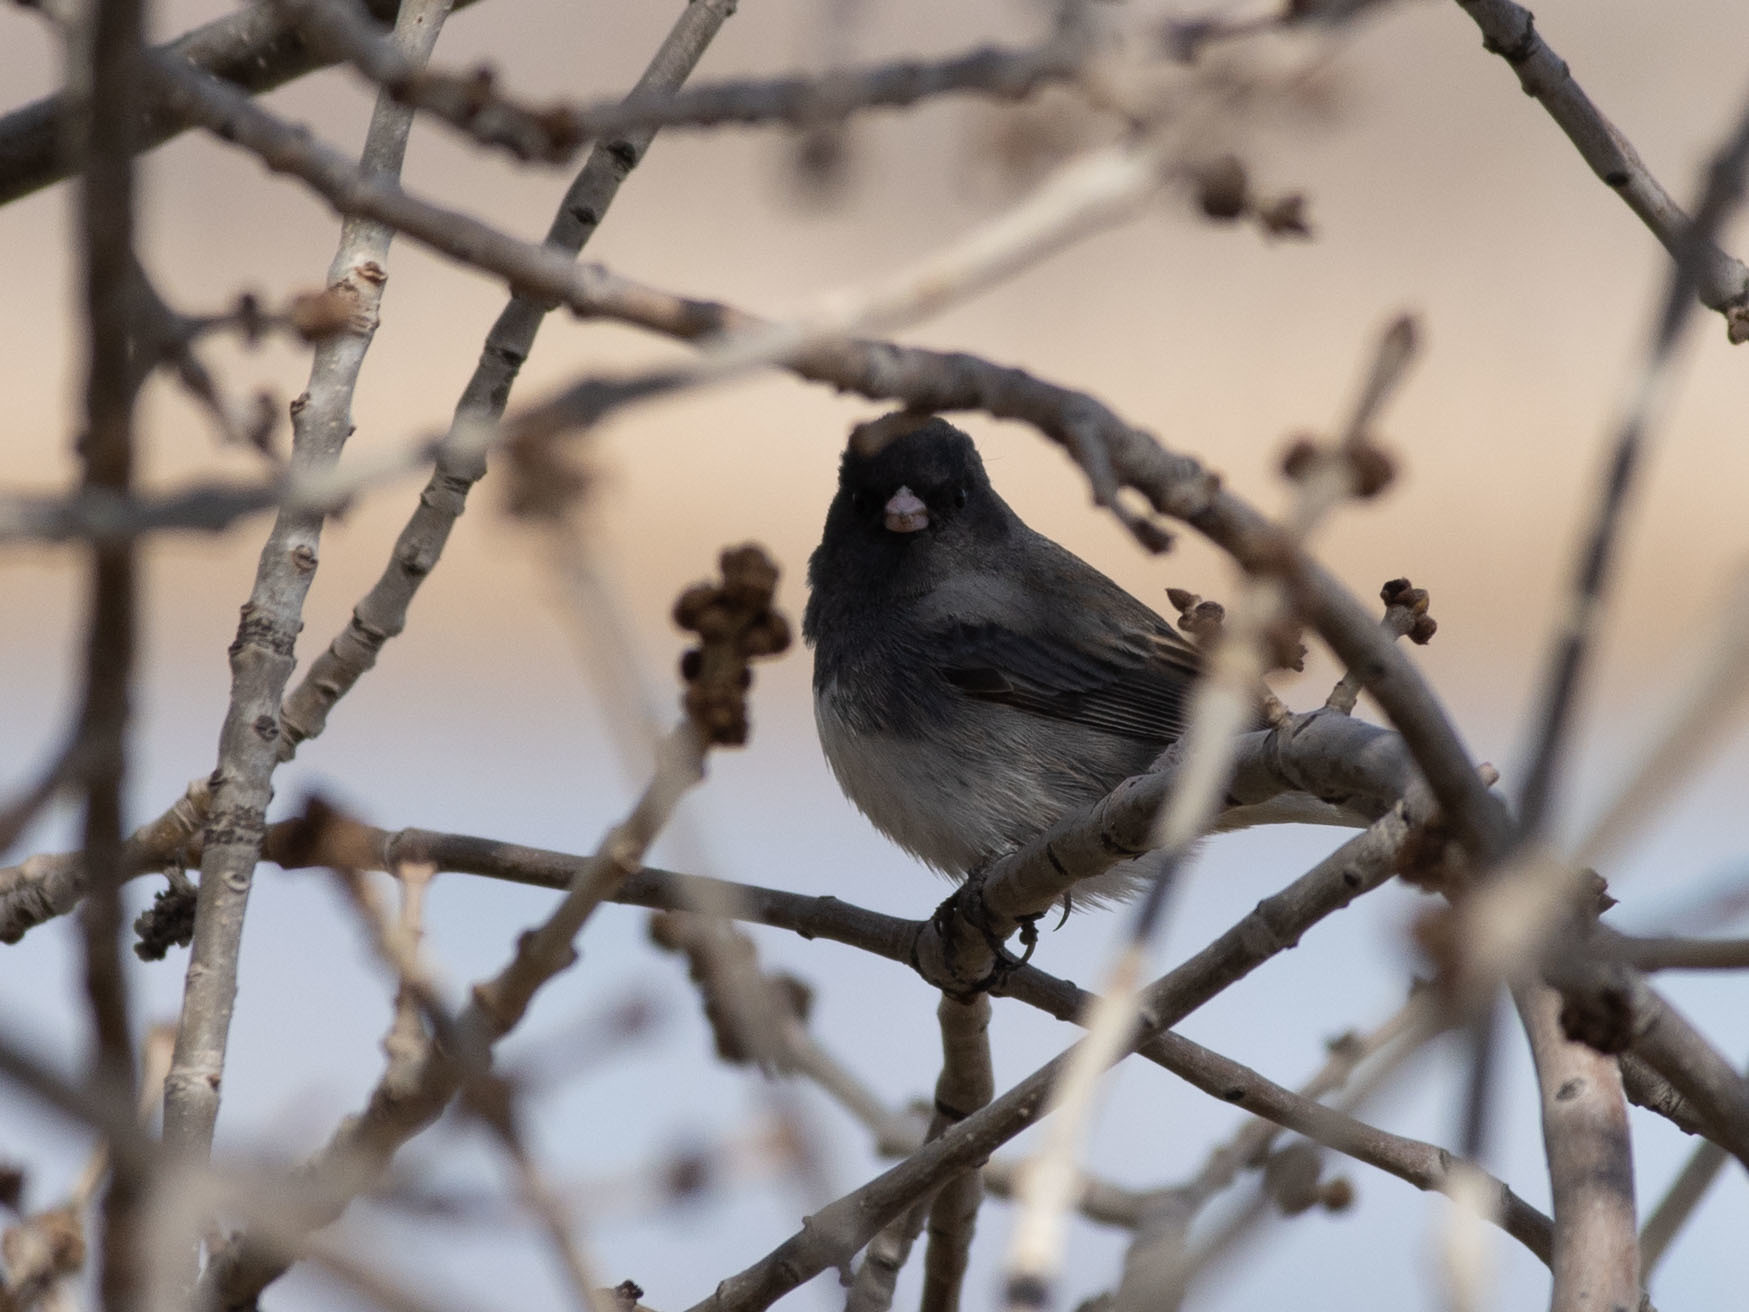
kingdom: Animalia
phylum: Chordata
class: Aves
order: Passeriformes
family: Passerellidae
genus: Junco
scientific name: Junco hyemalis
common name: Dark-eyed junco
